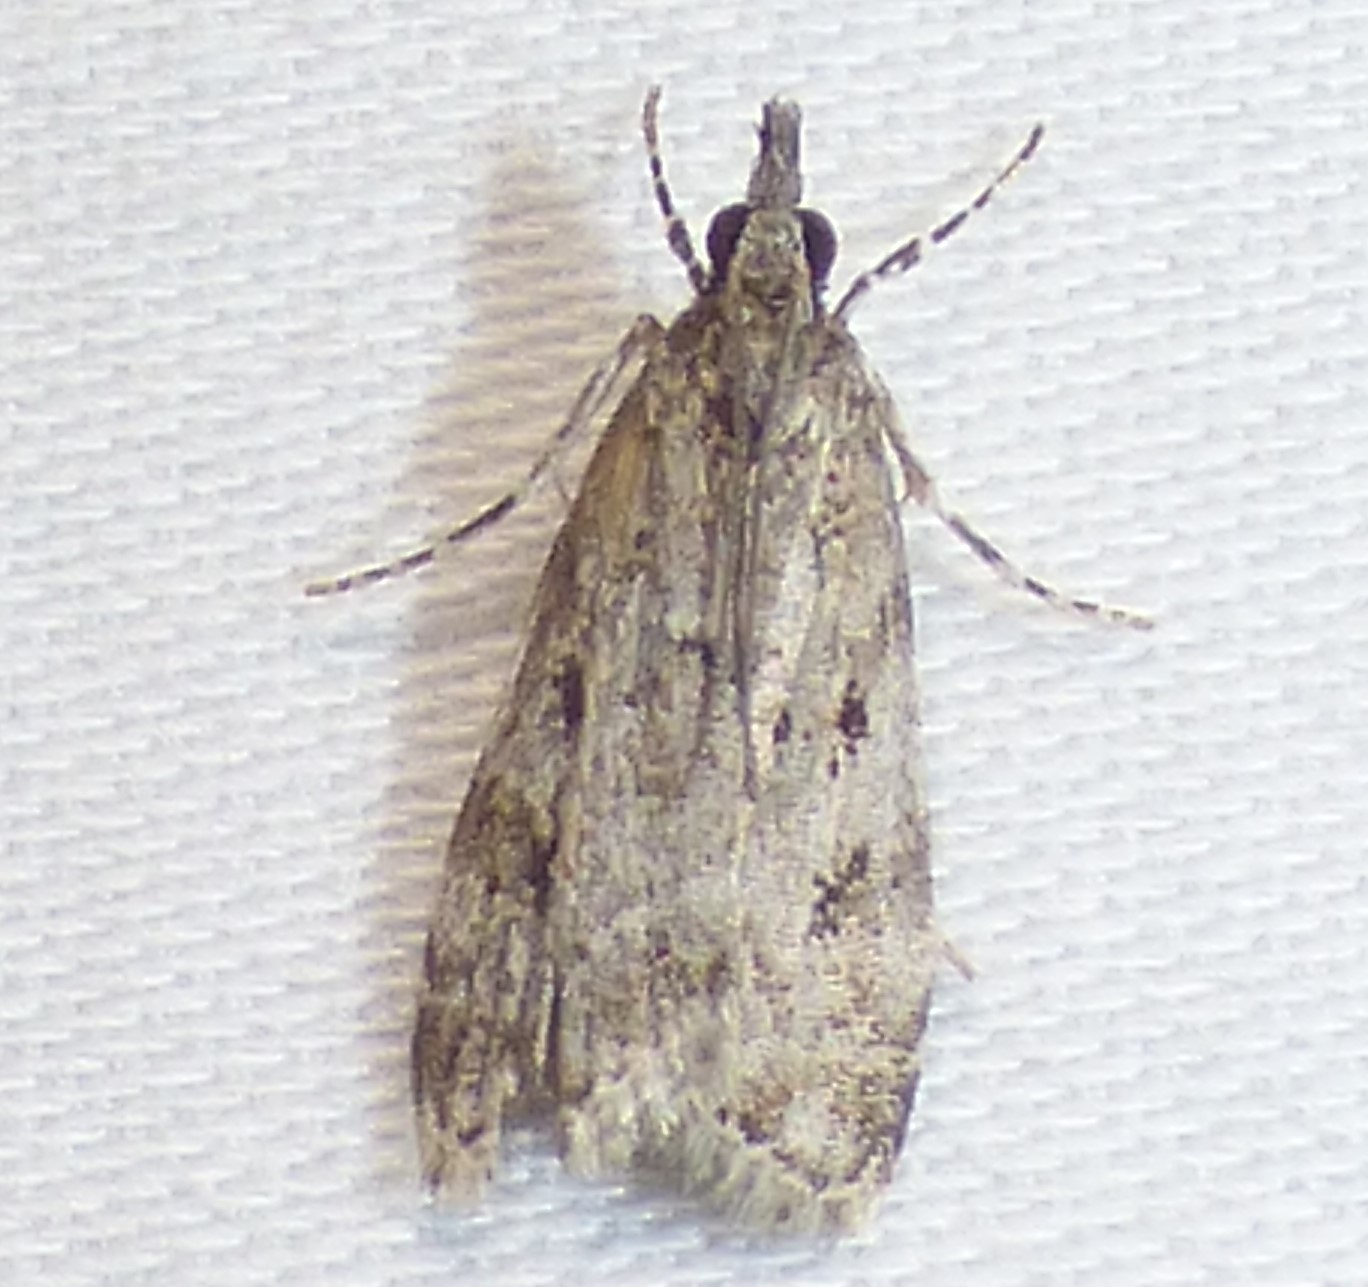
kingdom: Animalia
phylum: Arthropoda
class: Insecta
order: Lepidoptera
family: Crambidae
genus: Eudonia
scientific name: Eudonia heterosalis
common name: Mcdunnough's eudonia
